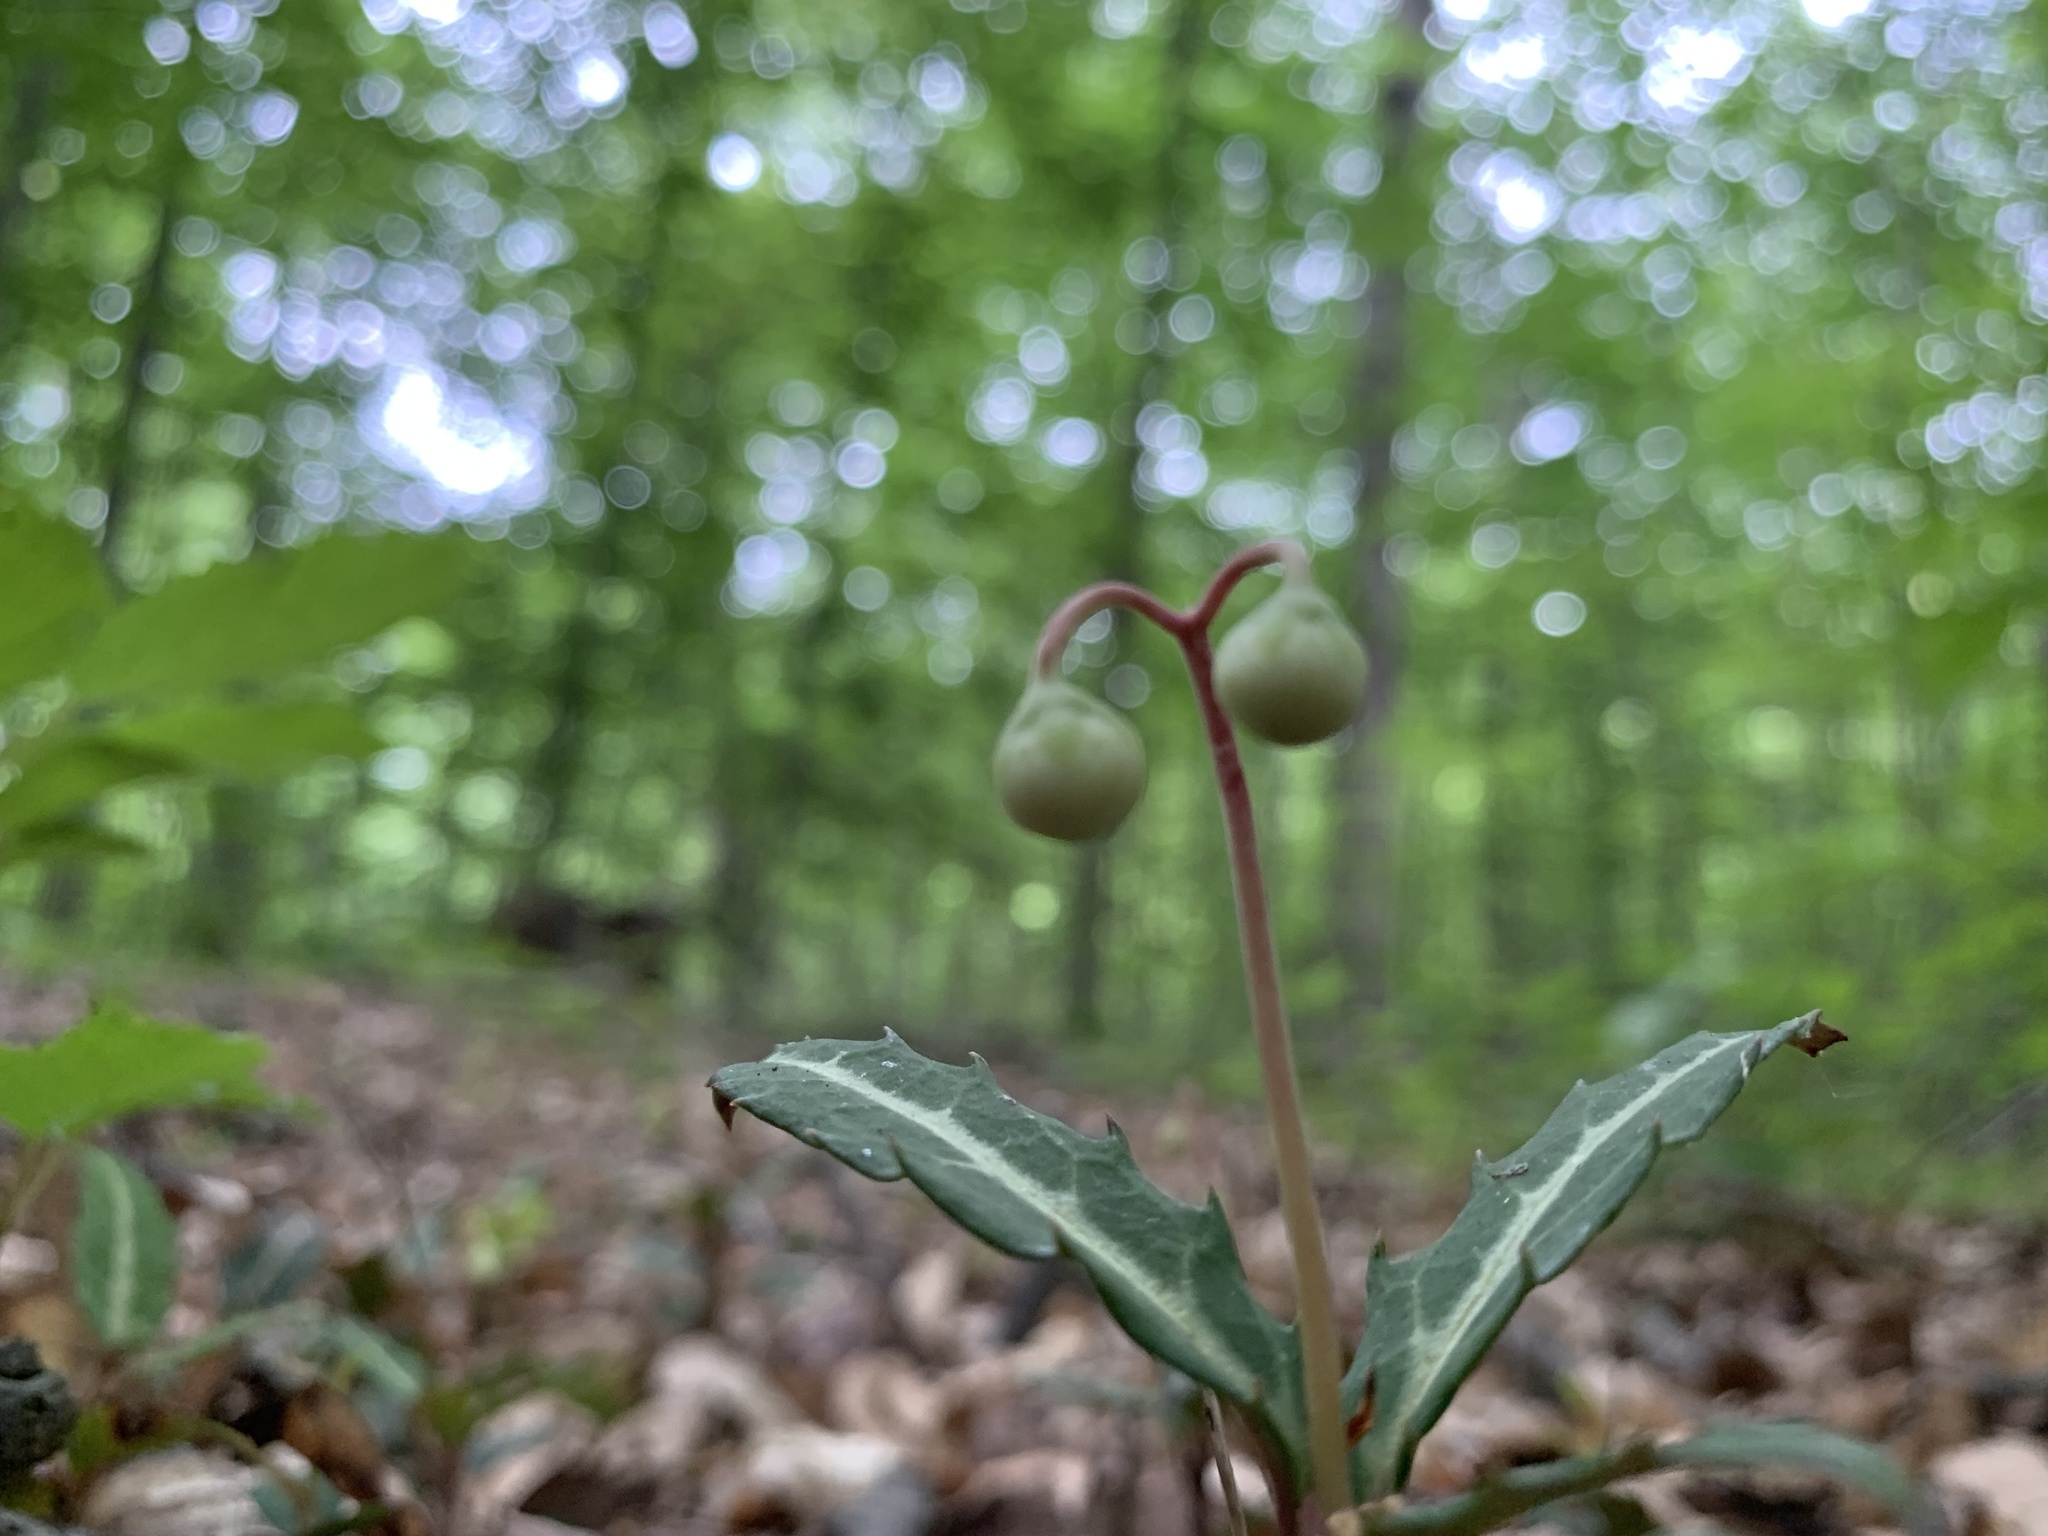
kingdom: Plantae
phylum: Tracheophyta
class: Magnoliopsida
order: Ericales
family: Ericaceae
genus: Chimaphila
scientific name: Chimaphila maculata
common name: Spotted pipsissewa
